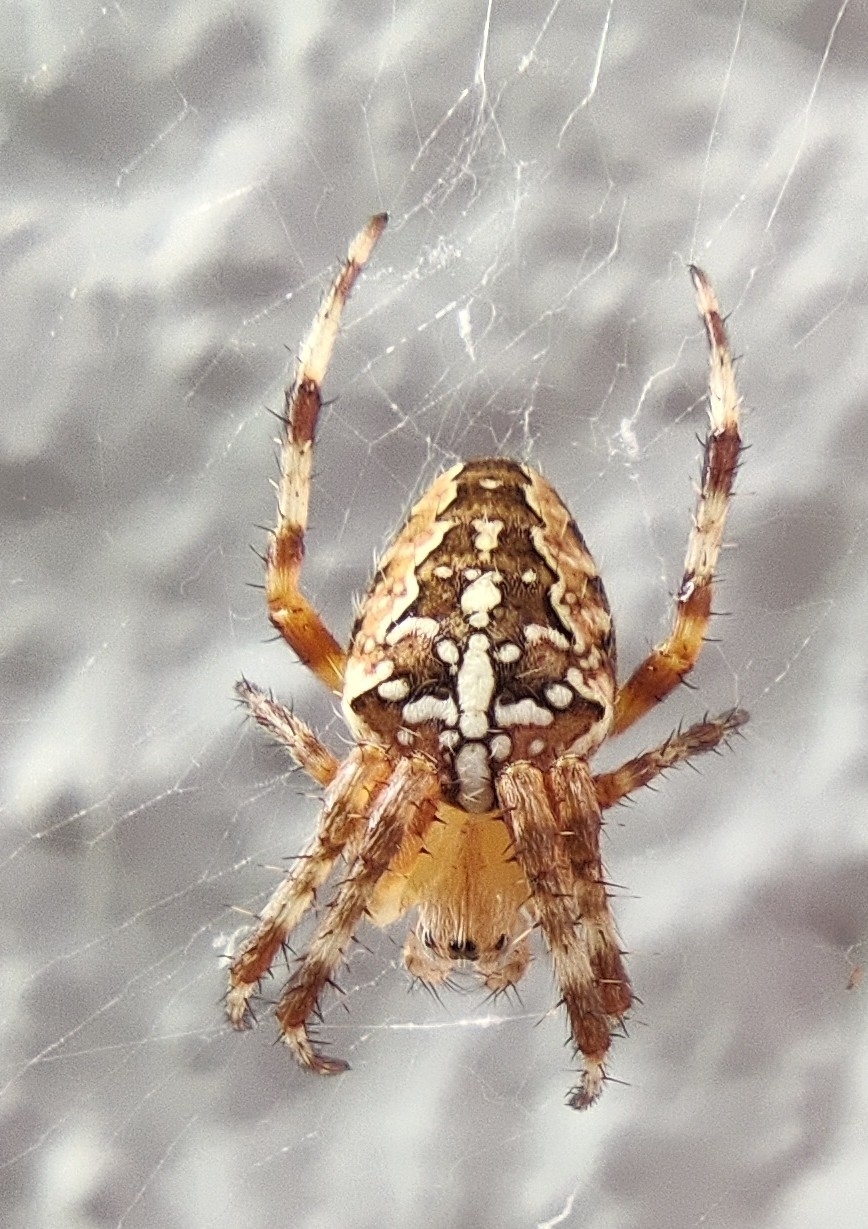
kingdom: Animalia
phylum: Arthropoda
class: Arachnida
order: Araneae
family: Araneidae
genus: Araneus
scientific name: Araneus diadematus
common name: Cross orbweaver
